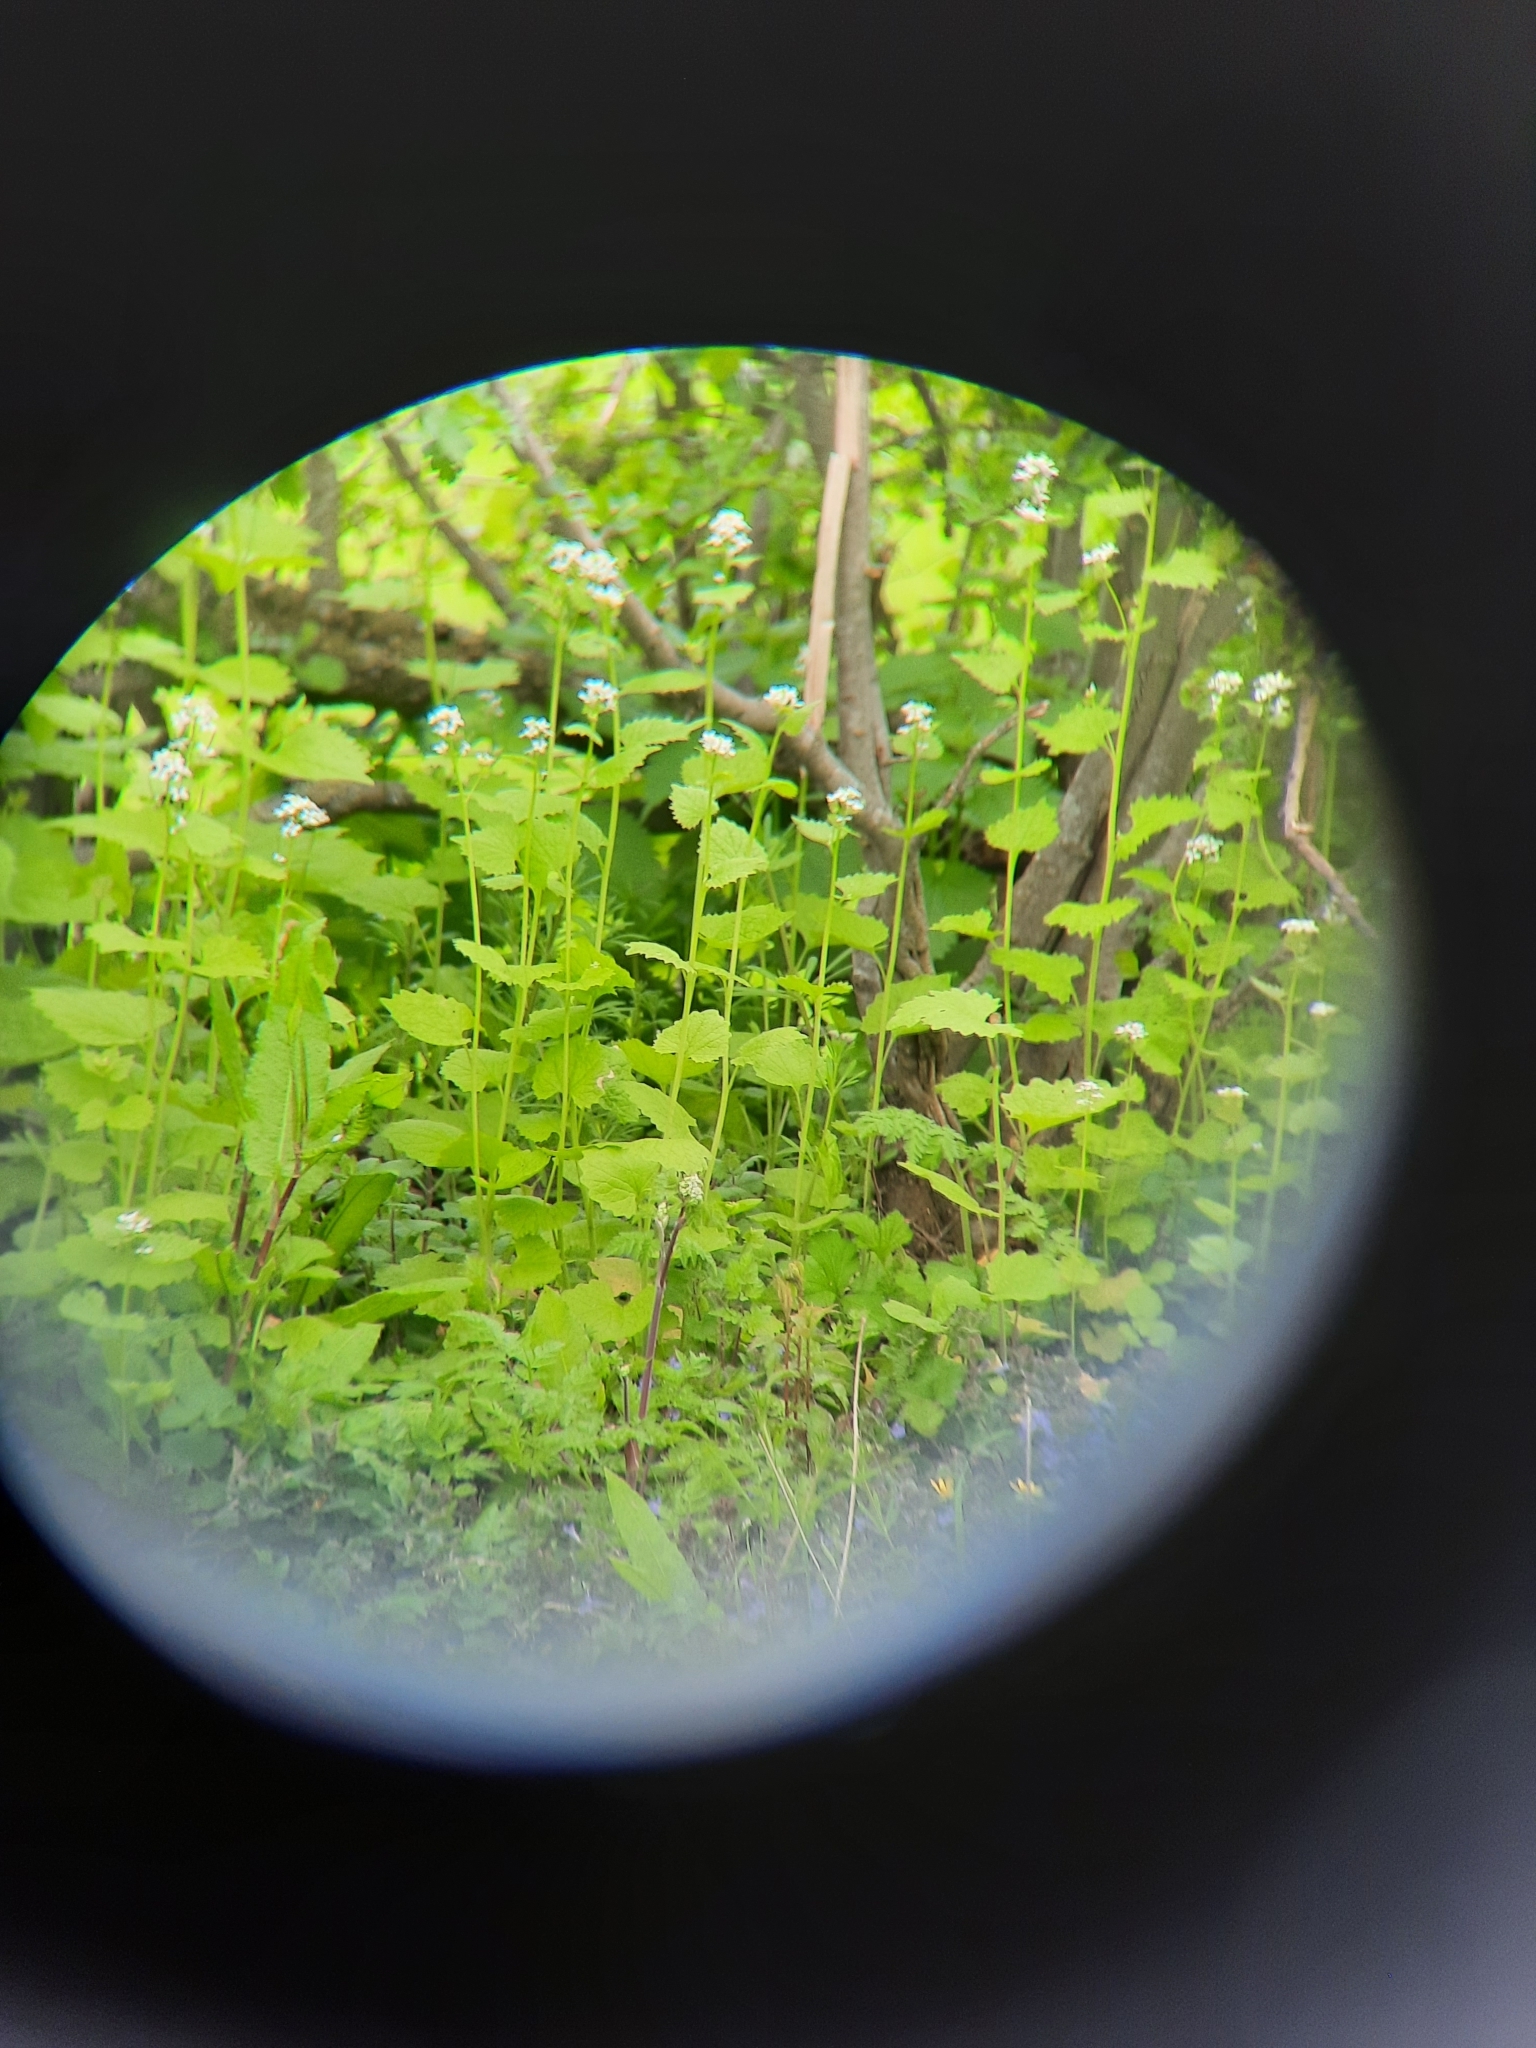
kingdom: Plantae
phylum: Tracheophyta
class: Magnoliopsida
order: Brassicales
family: Brassicaceae
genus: Alliaria
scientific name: Alliaria petiolata
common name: Garlic mustard
